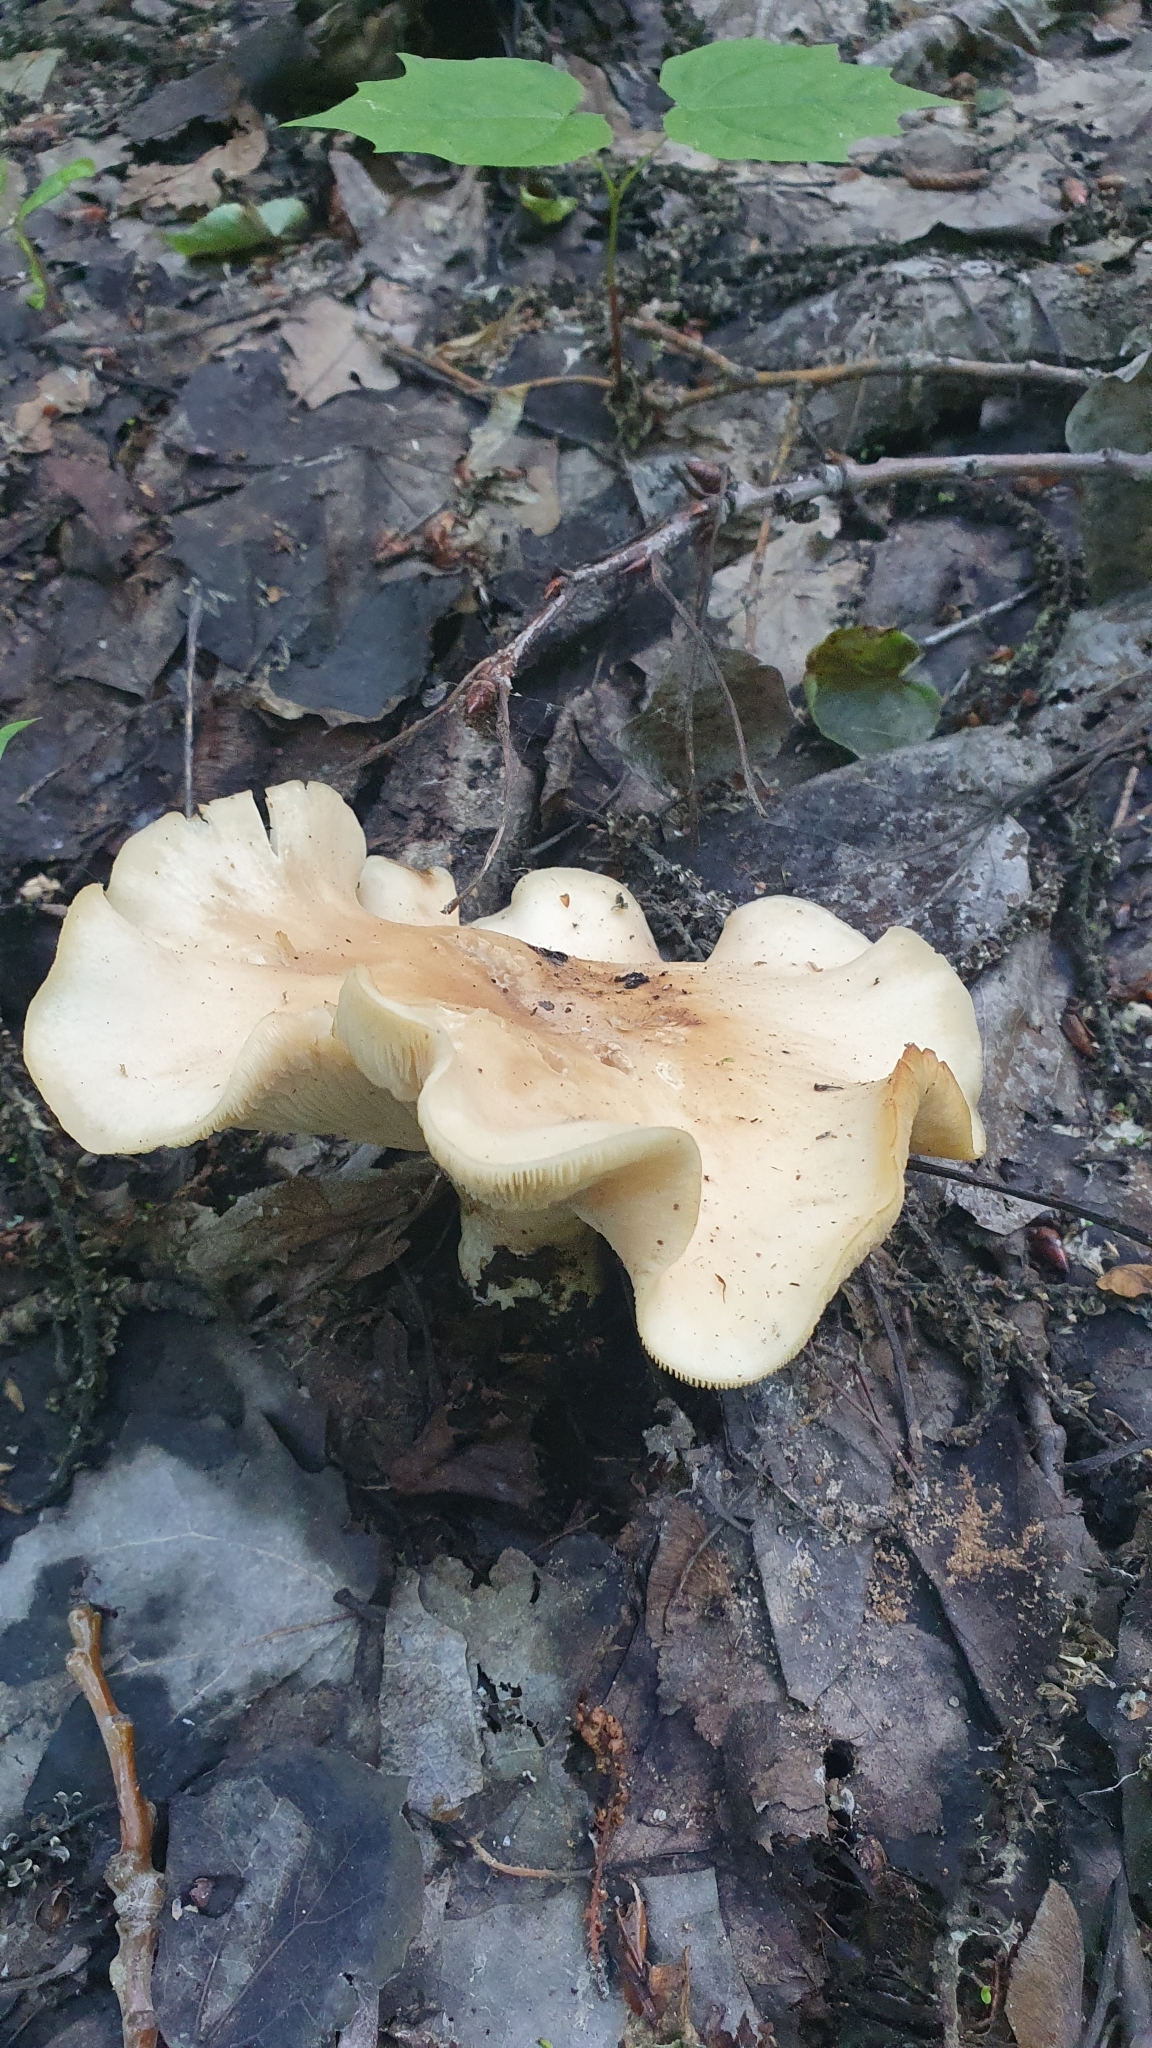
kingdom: Fungi
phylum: Basidiomycota
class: Agaricomycetes
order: Agaricales
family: Lyophyllaceae
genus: Calocybe
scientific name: Calocybe gambosa
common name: St. george's mushroom
